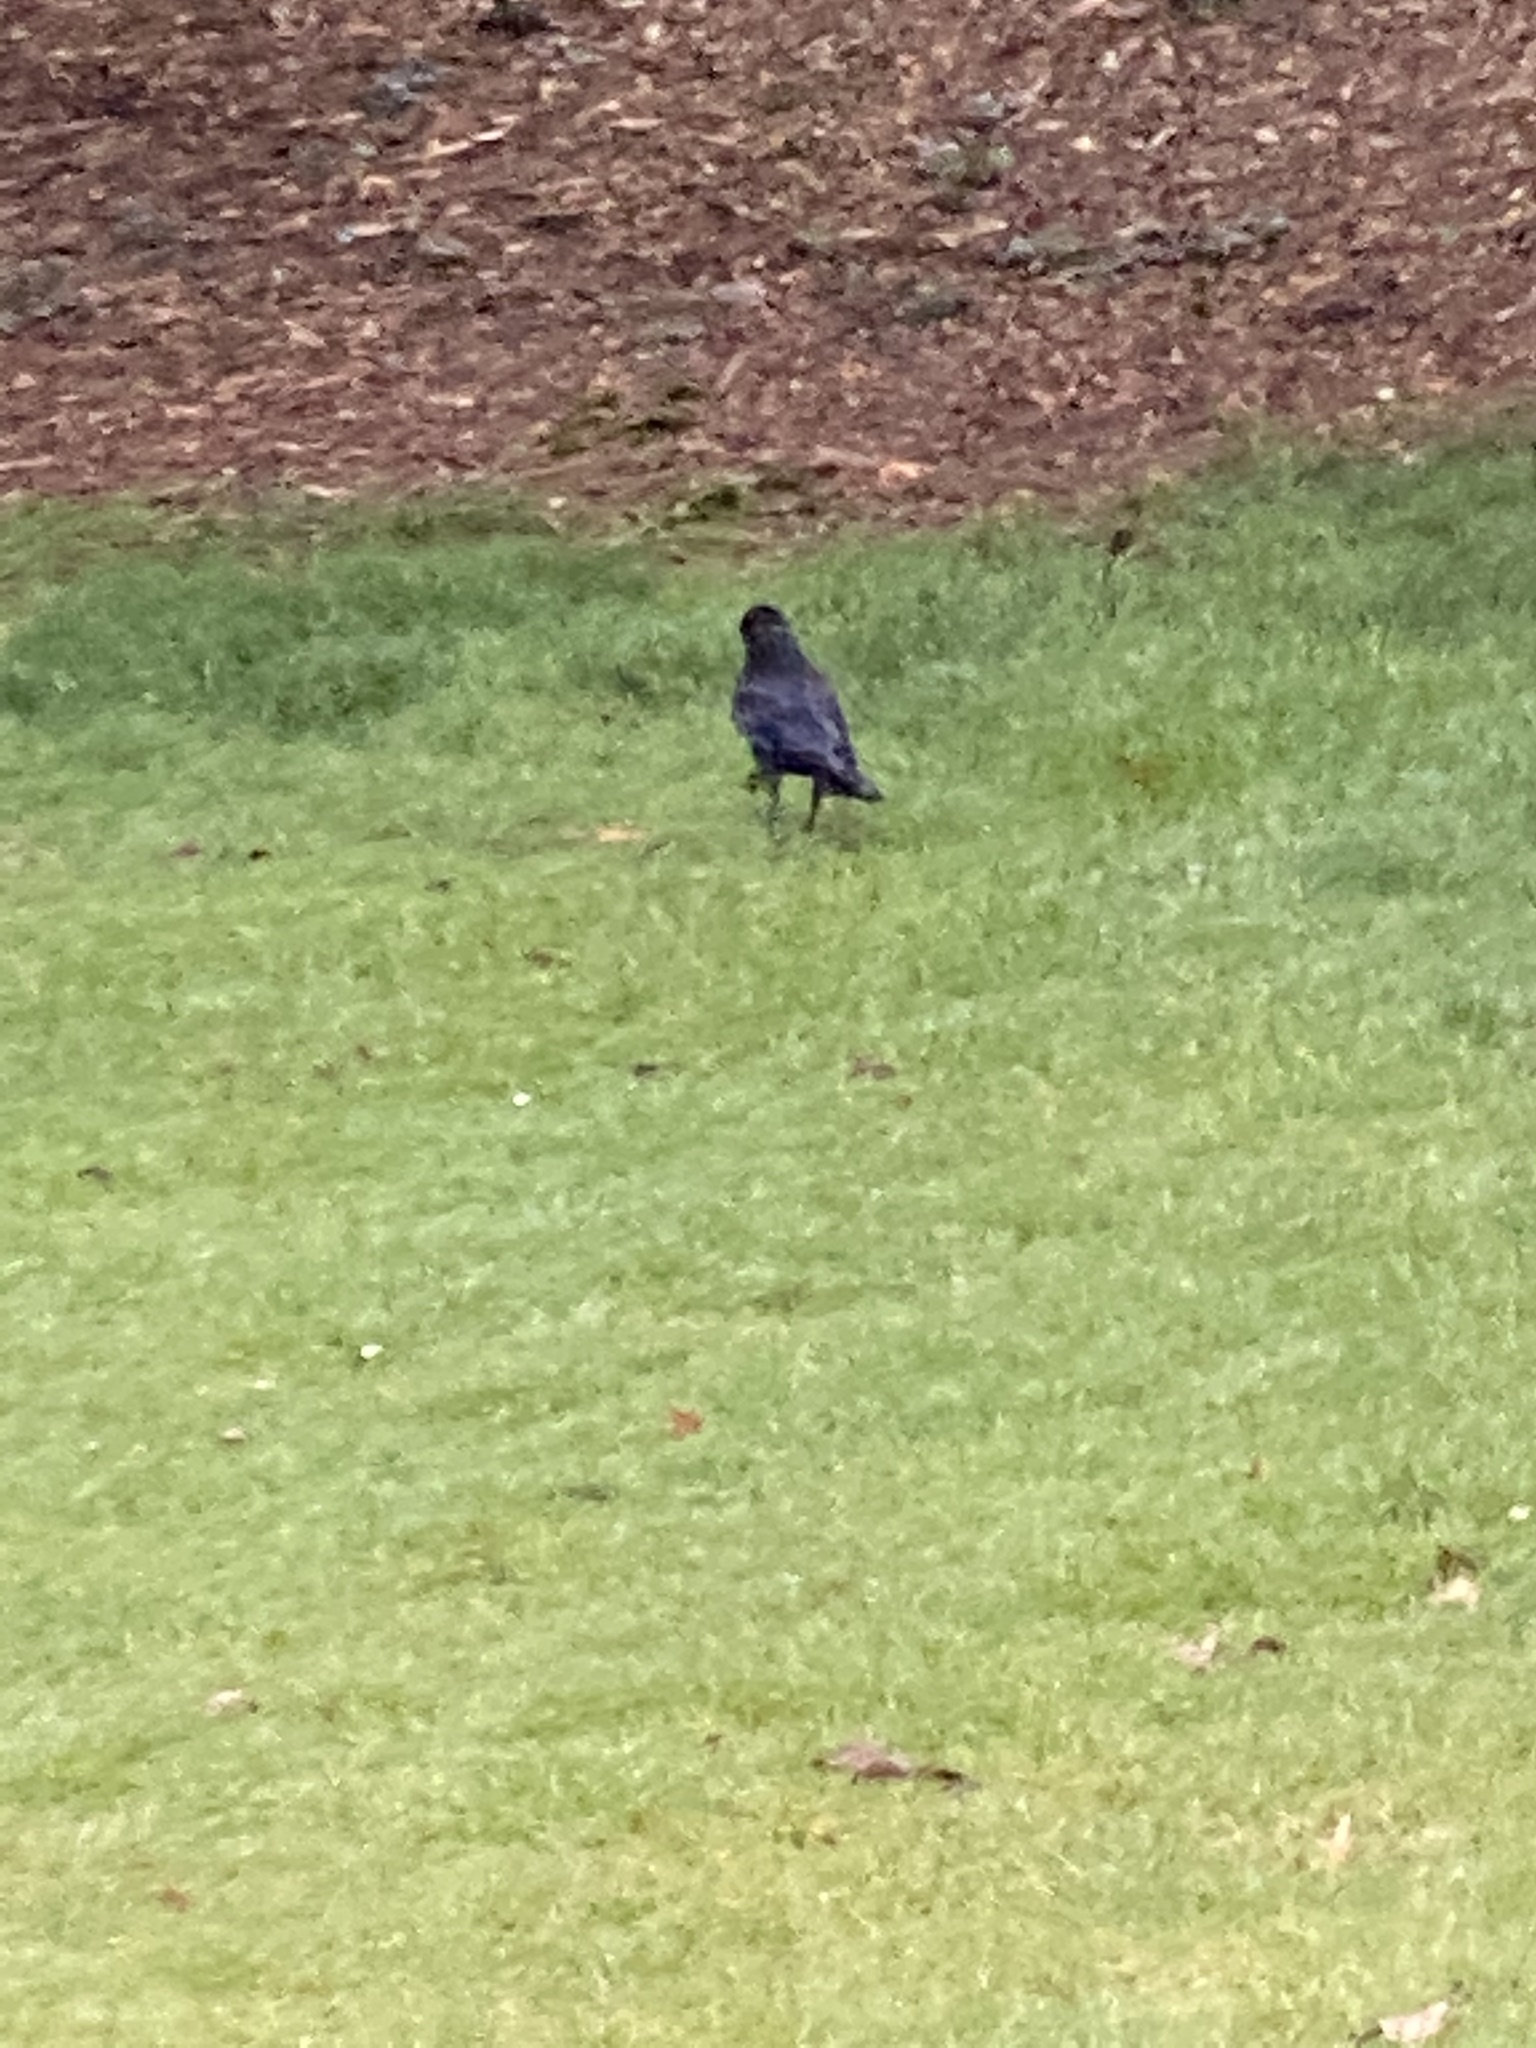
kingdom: Animalia
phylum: Chordata
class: Aves
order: Passeriformes
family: Corvidae
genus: Corvus
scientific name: Corvus brachyrhynchos
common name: American crow
